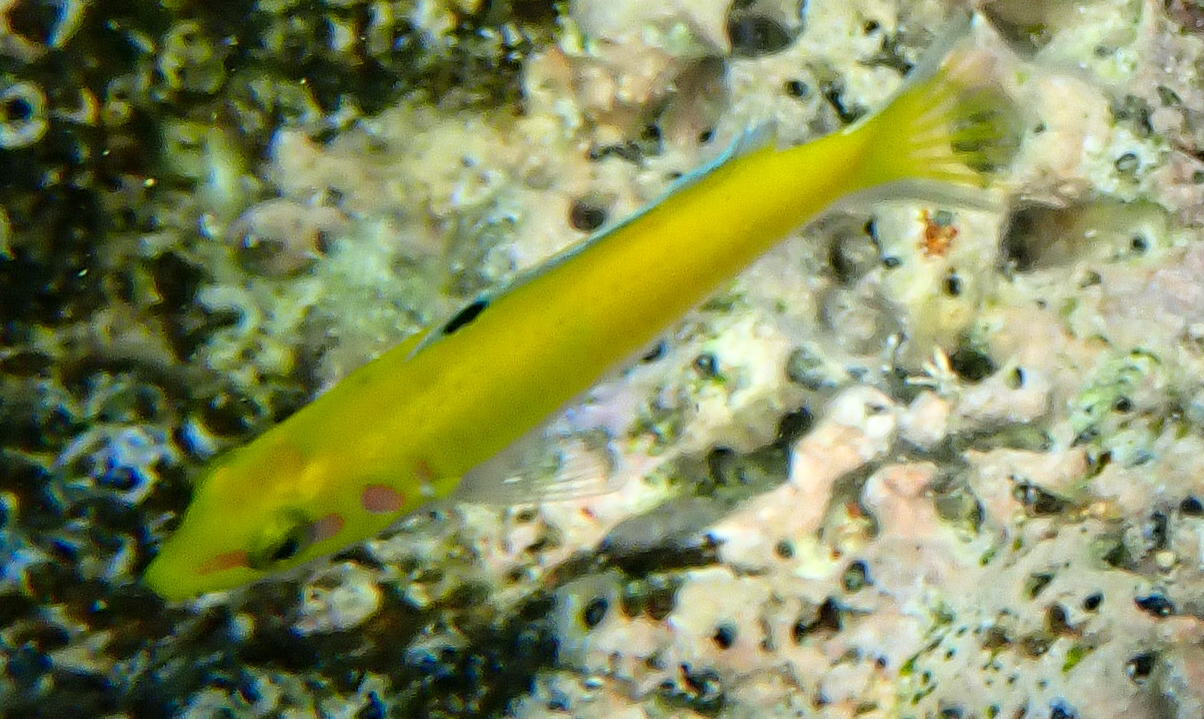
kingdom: Animalia
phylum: Chordata
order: Perciformes
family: Labridae
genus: Thalassoma
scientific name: Thalassoma bifasciatum
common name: Bluehead wrasse
